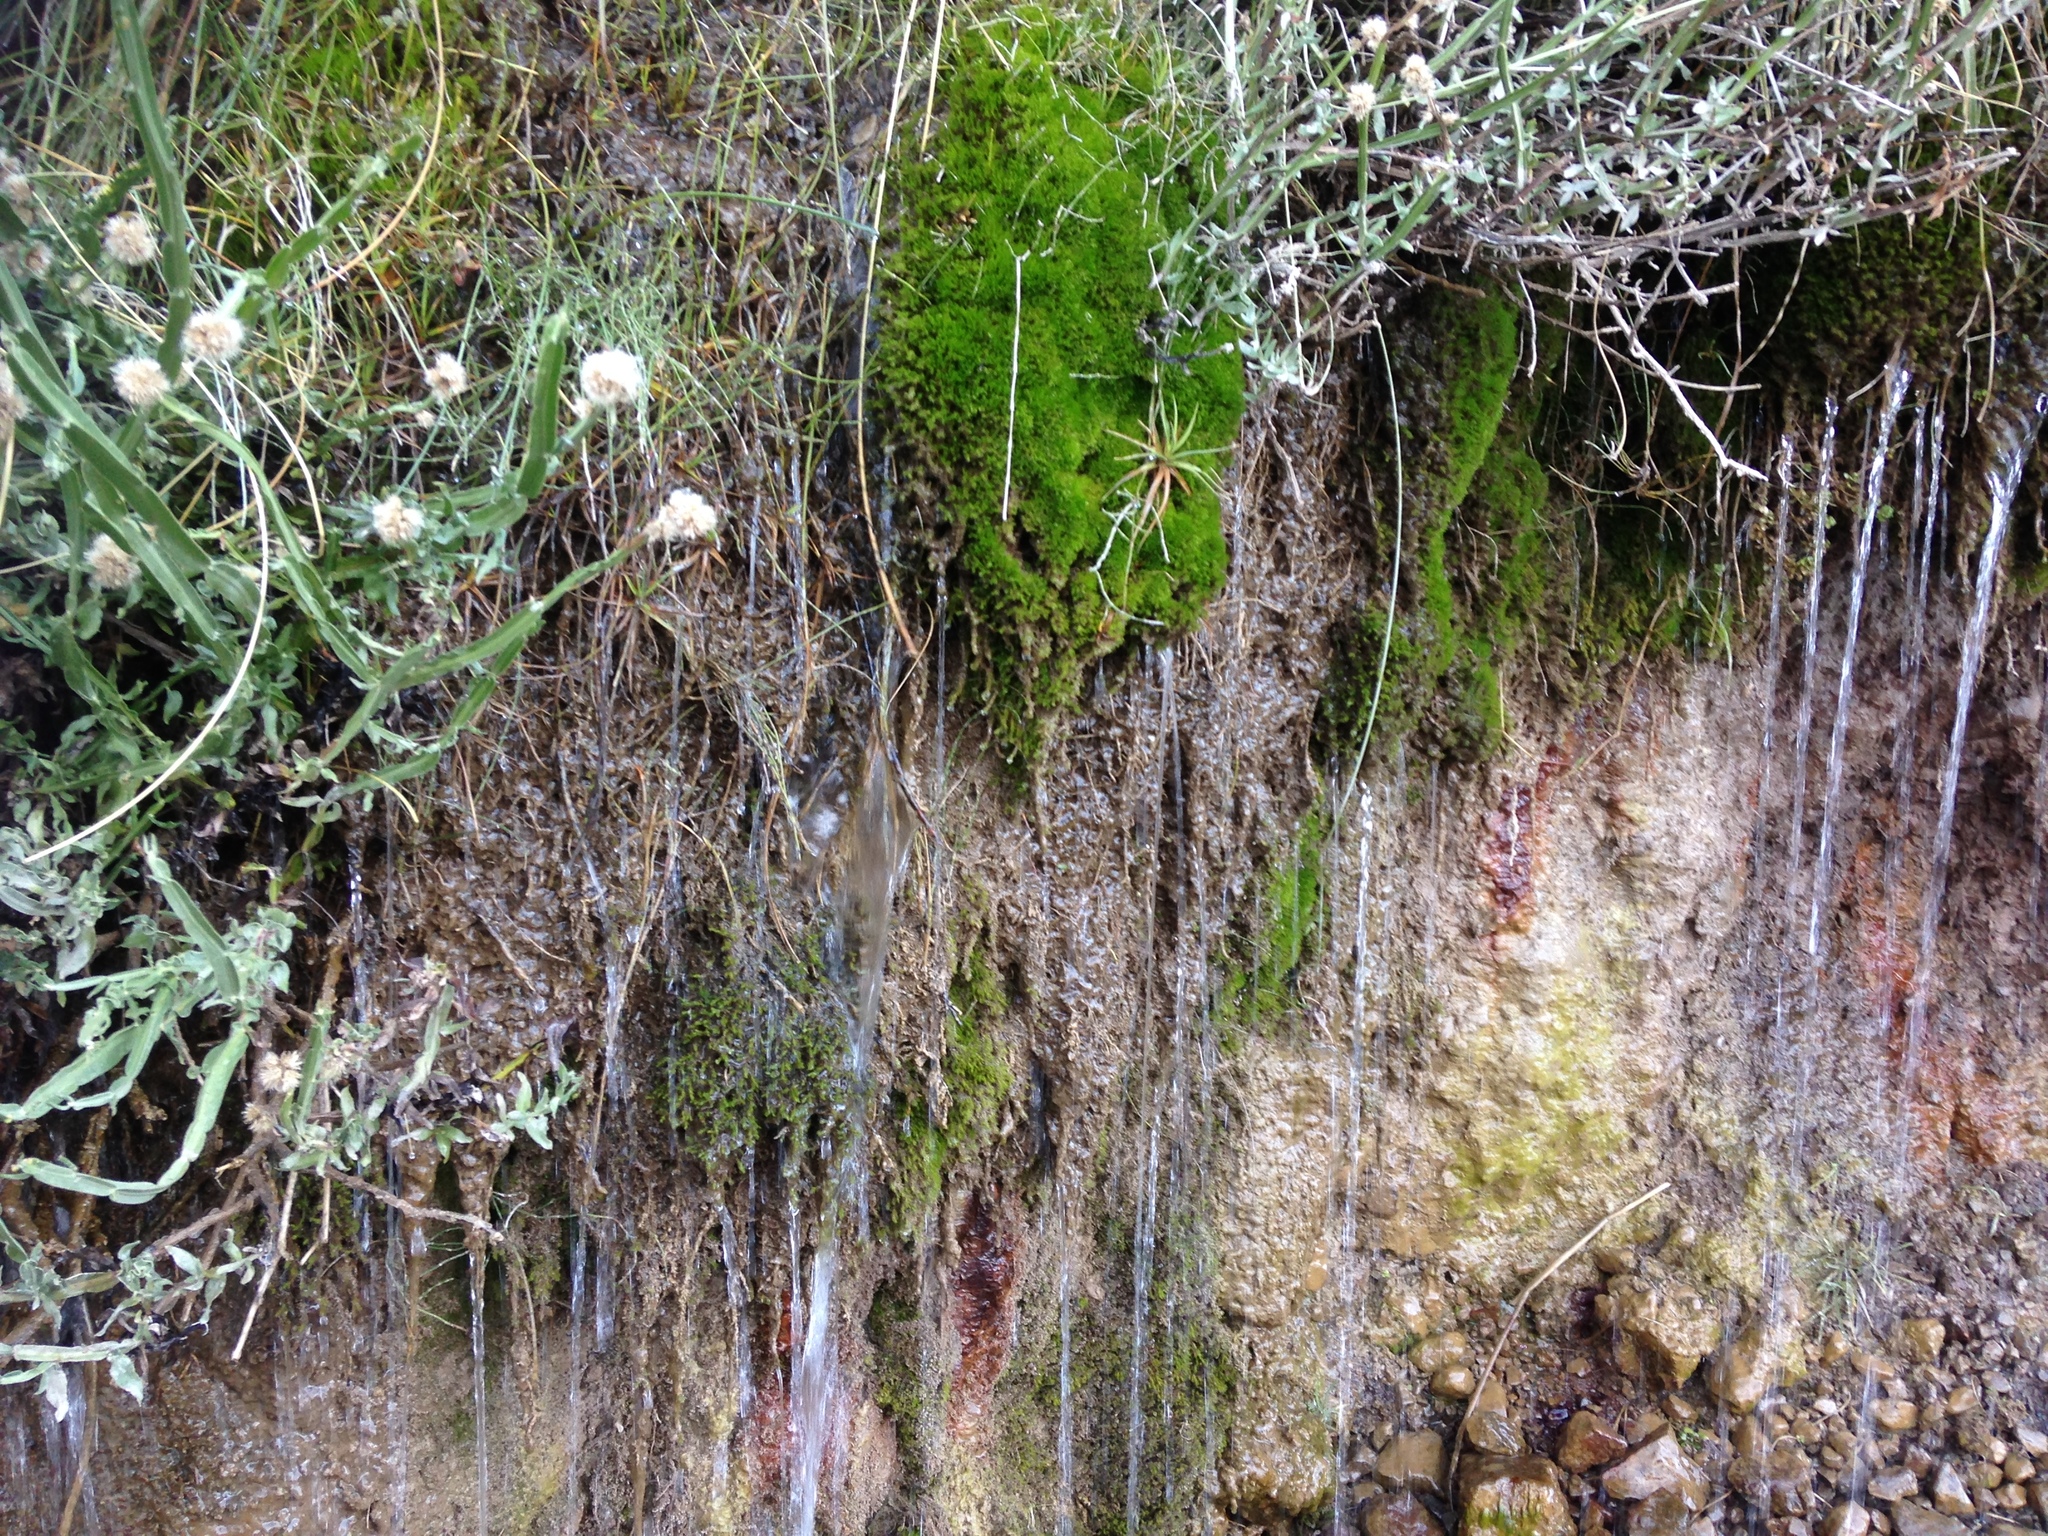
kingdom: Plantae
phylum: Tracheophyta
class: Magnoliopsida
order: Asterales
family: Asteraceae
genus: Baccharis
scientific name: Baccharis sagittalis
